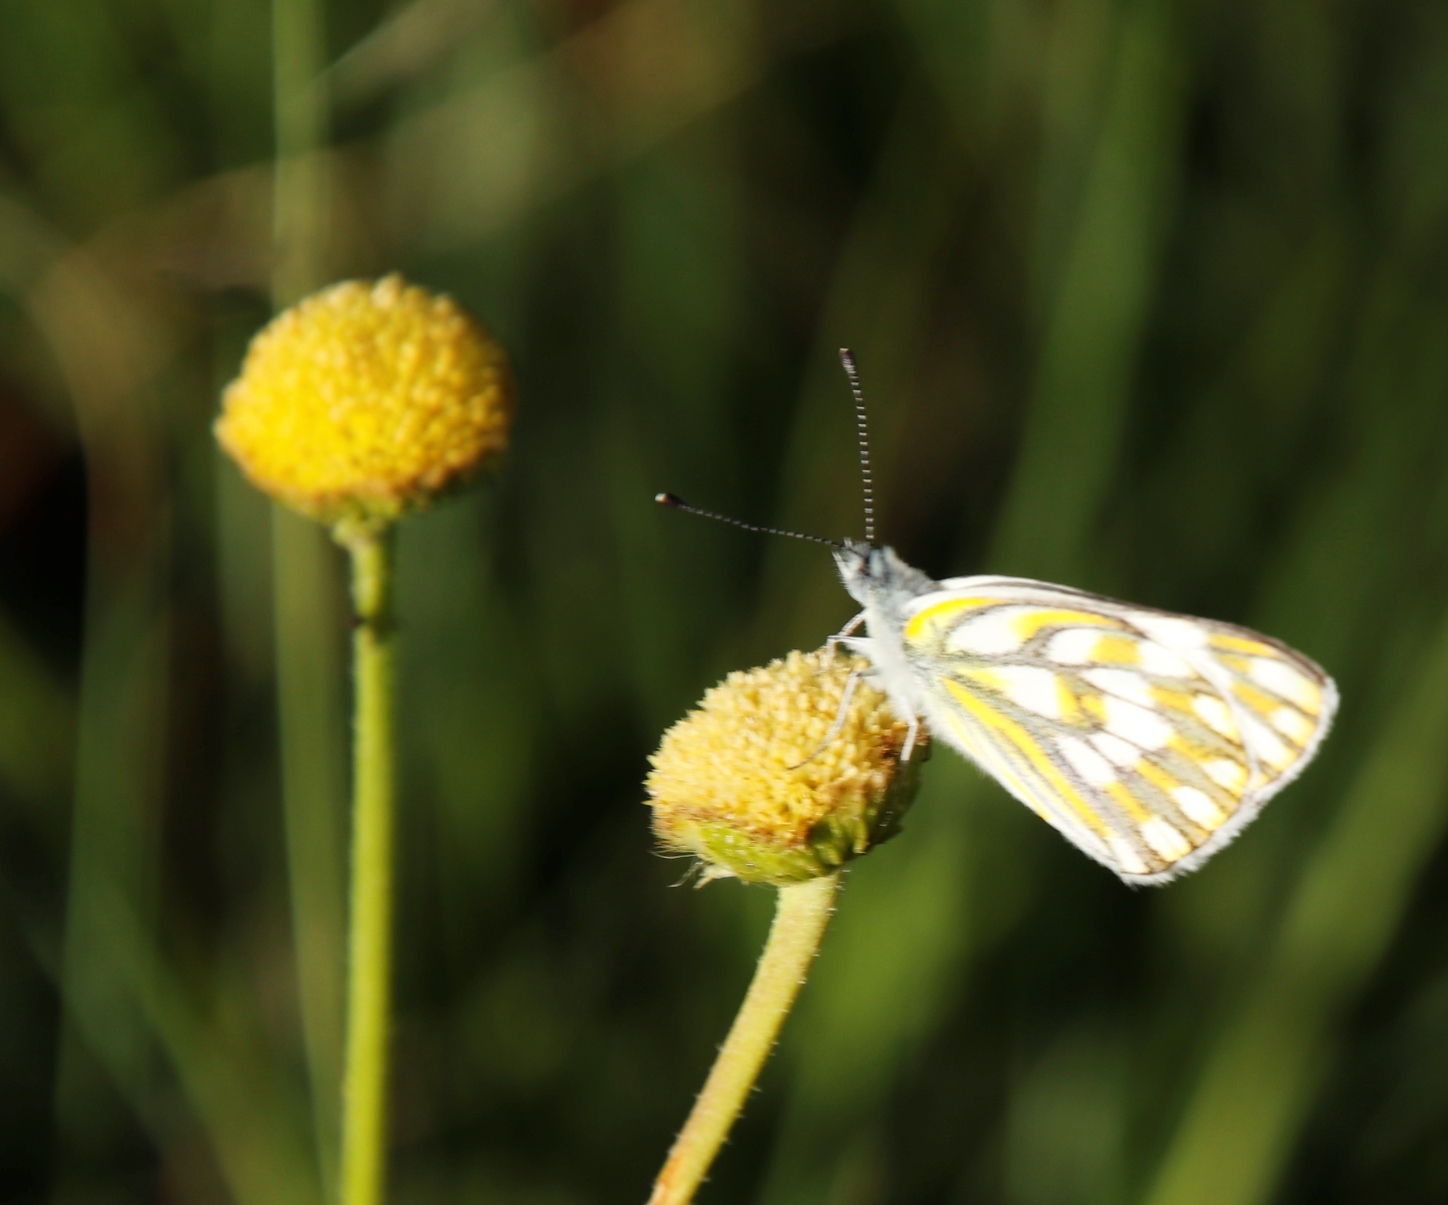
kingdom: Animalia
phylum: Arthropoda
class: Insecta
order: Lepidoptera
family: Pieridae
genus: Pontia
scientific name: Pontia helice
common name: Meadow white
